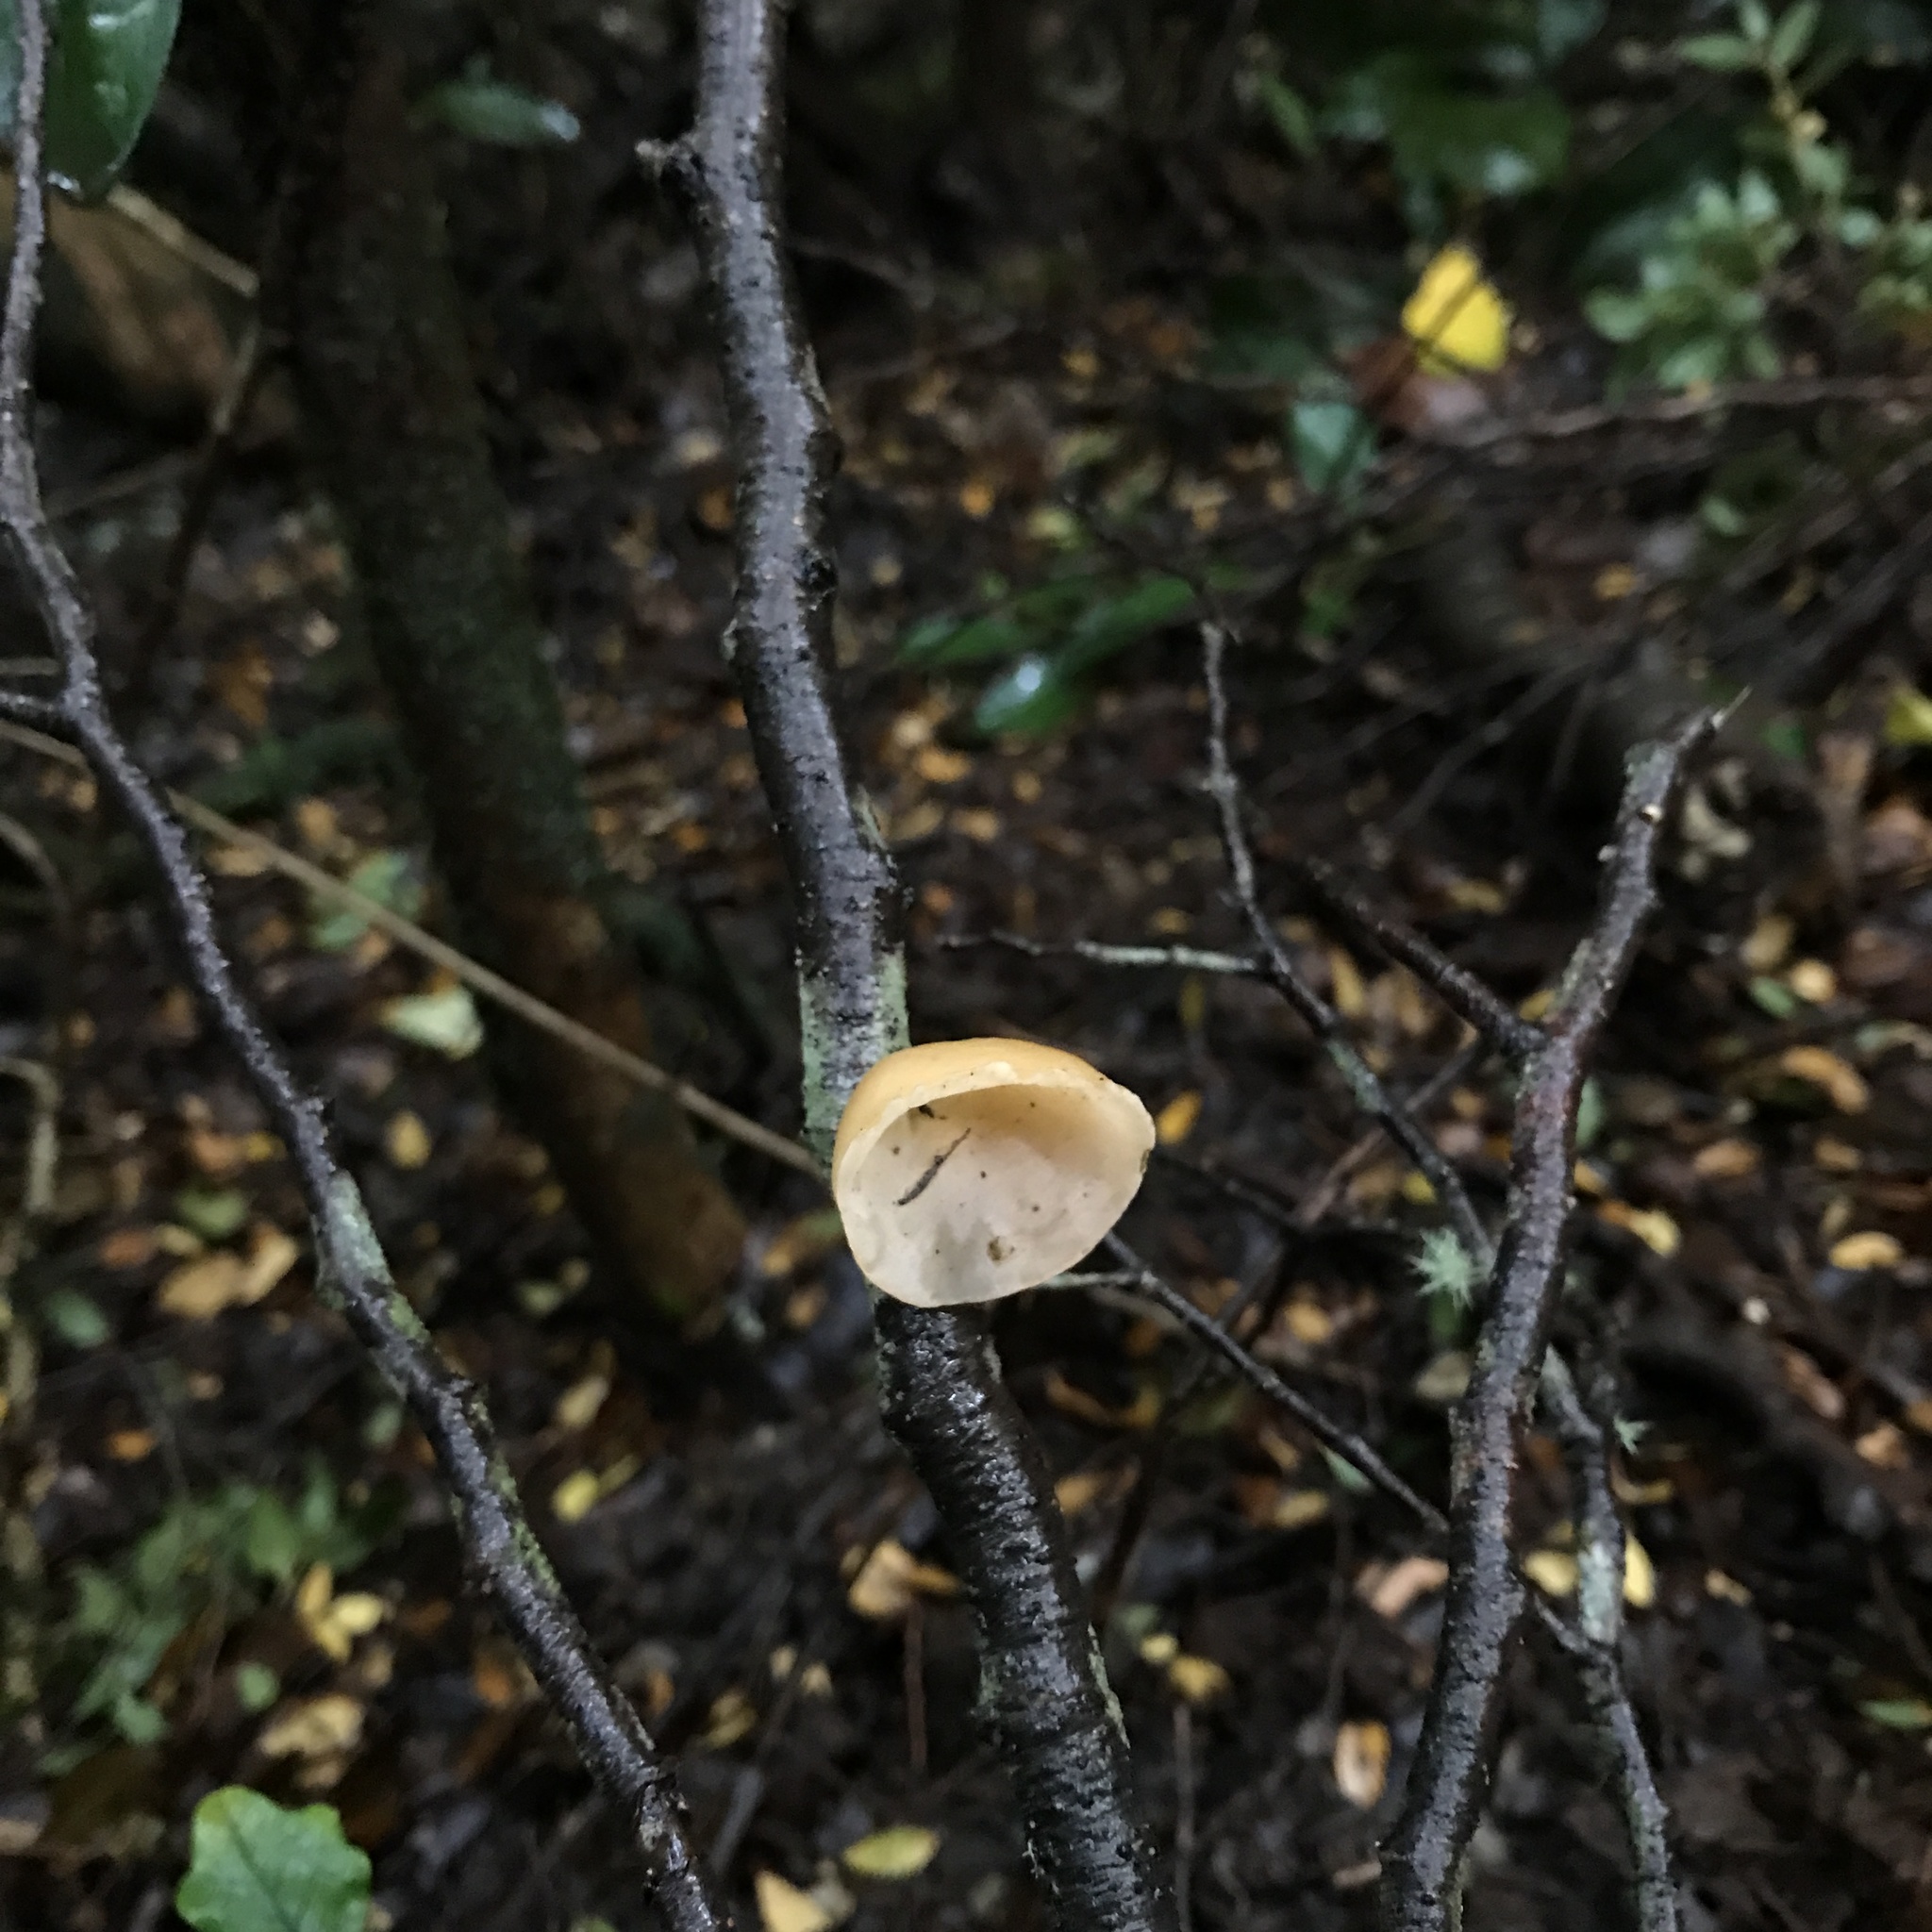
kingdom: Fungi
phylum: Basidiomycota
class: Agaricomycetes
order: Russulales
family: Stereaceae
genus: Aleurodiscus
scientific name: Aleurodiscus vitellinus
